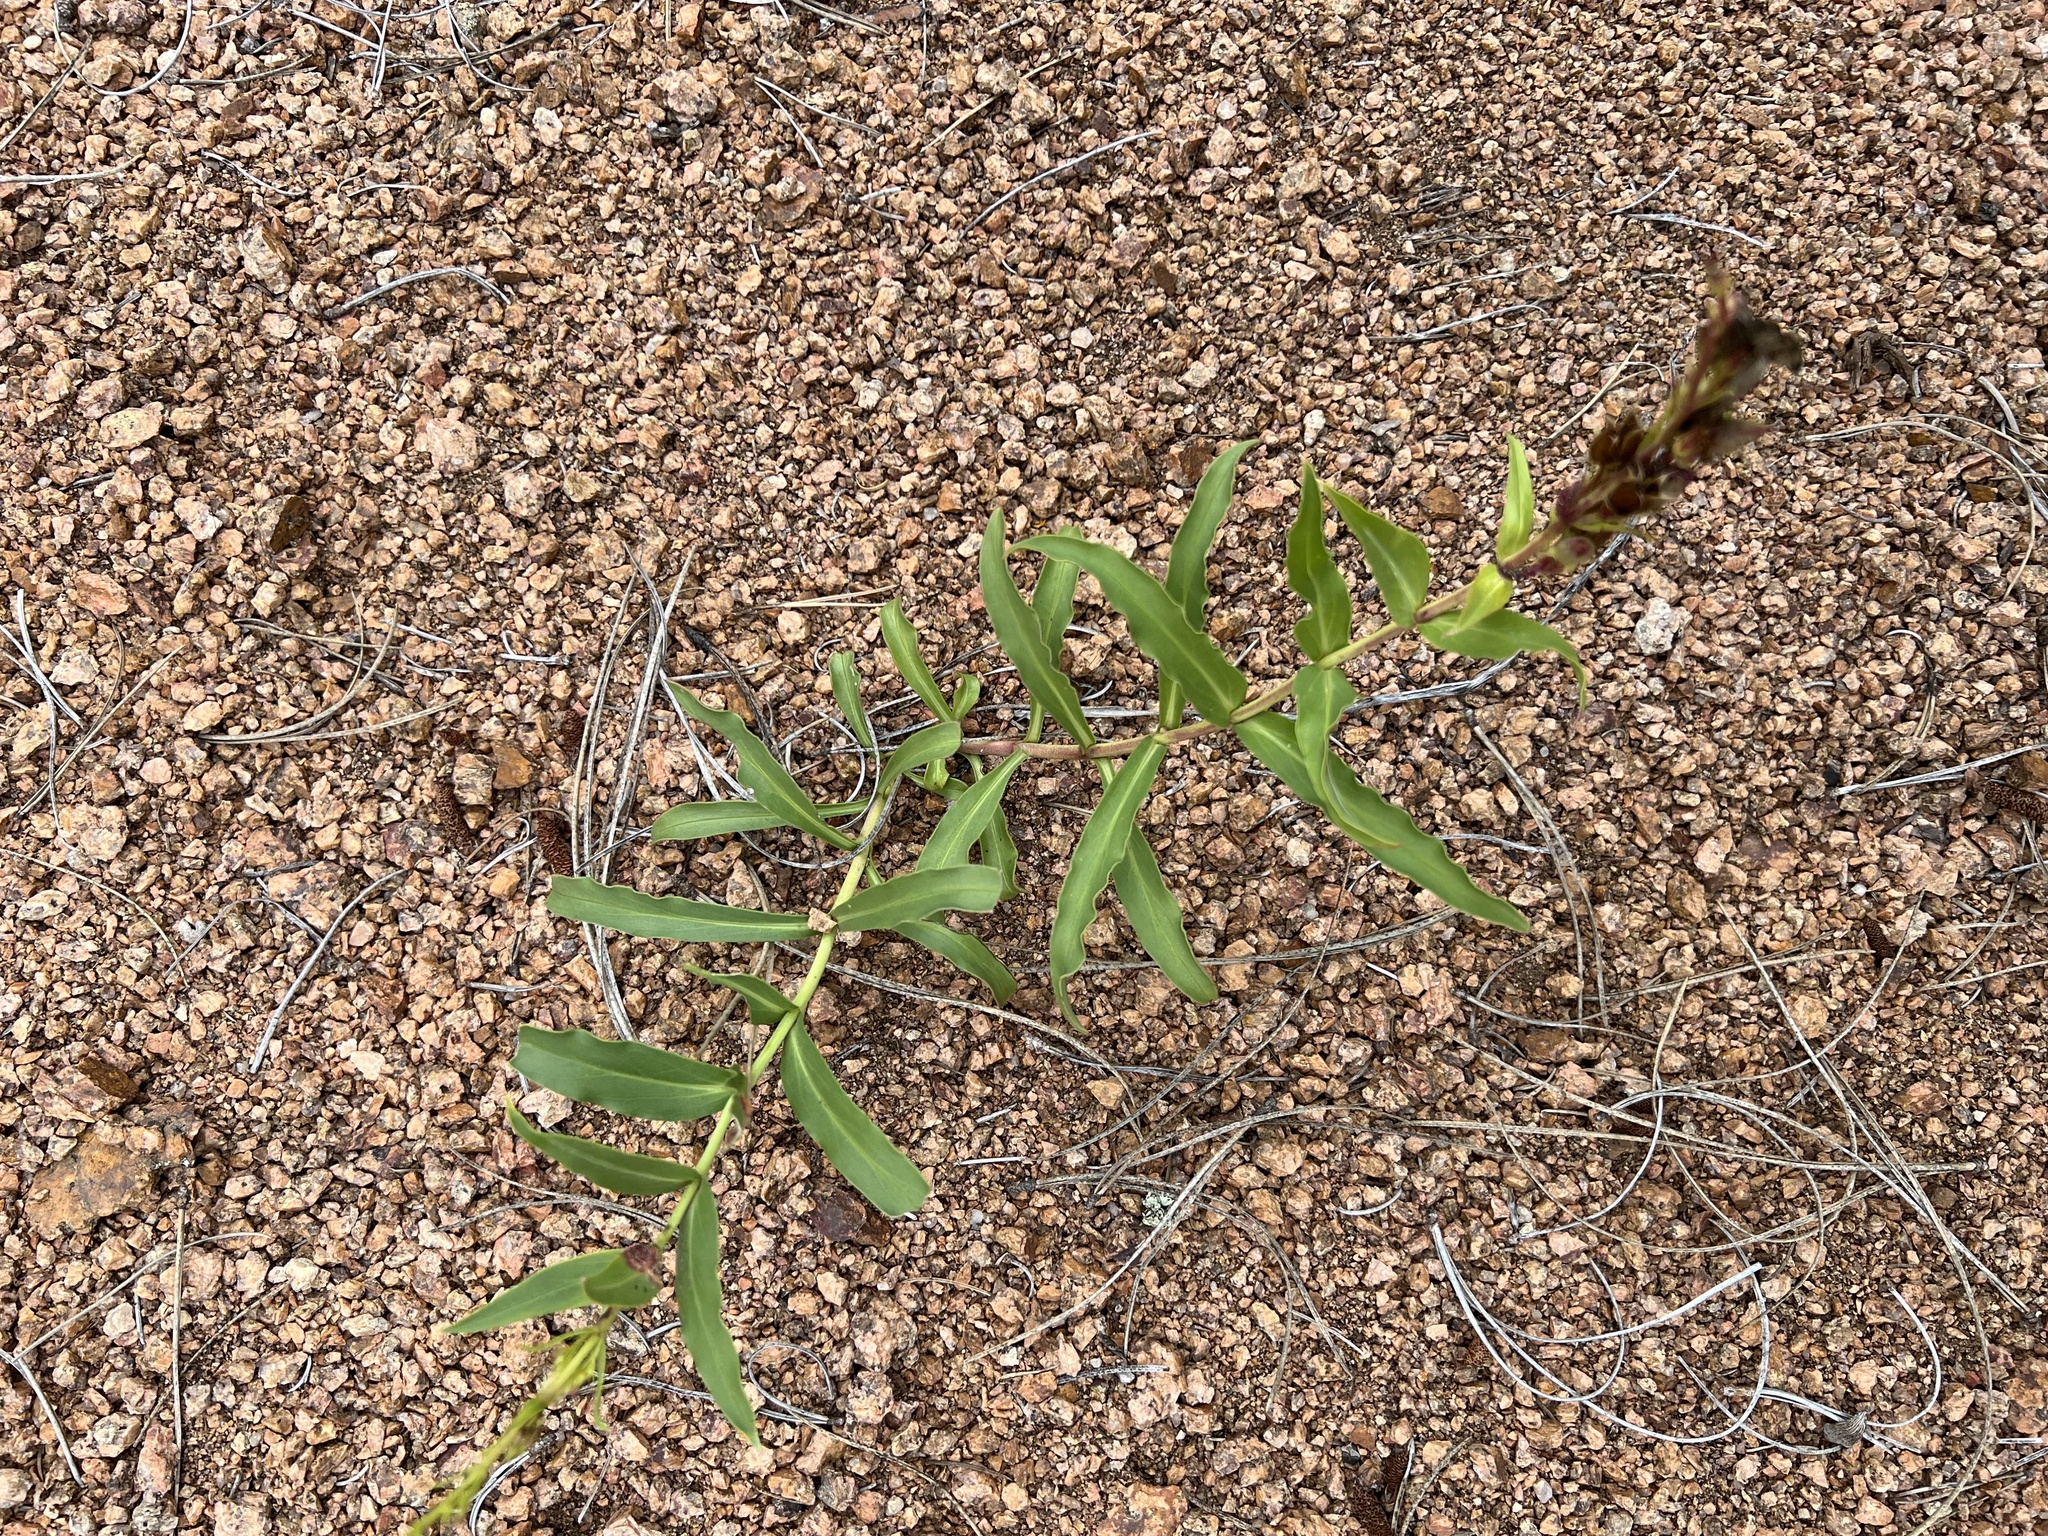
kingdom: Plantae
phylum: Tracheophyta
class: Magnoliopsida
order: Lamiales
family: Plantaginaceae
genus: Penstemon
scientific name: Penstemon glaber
